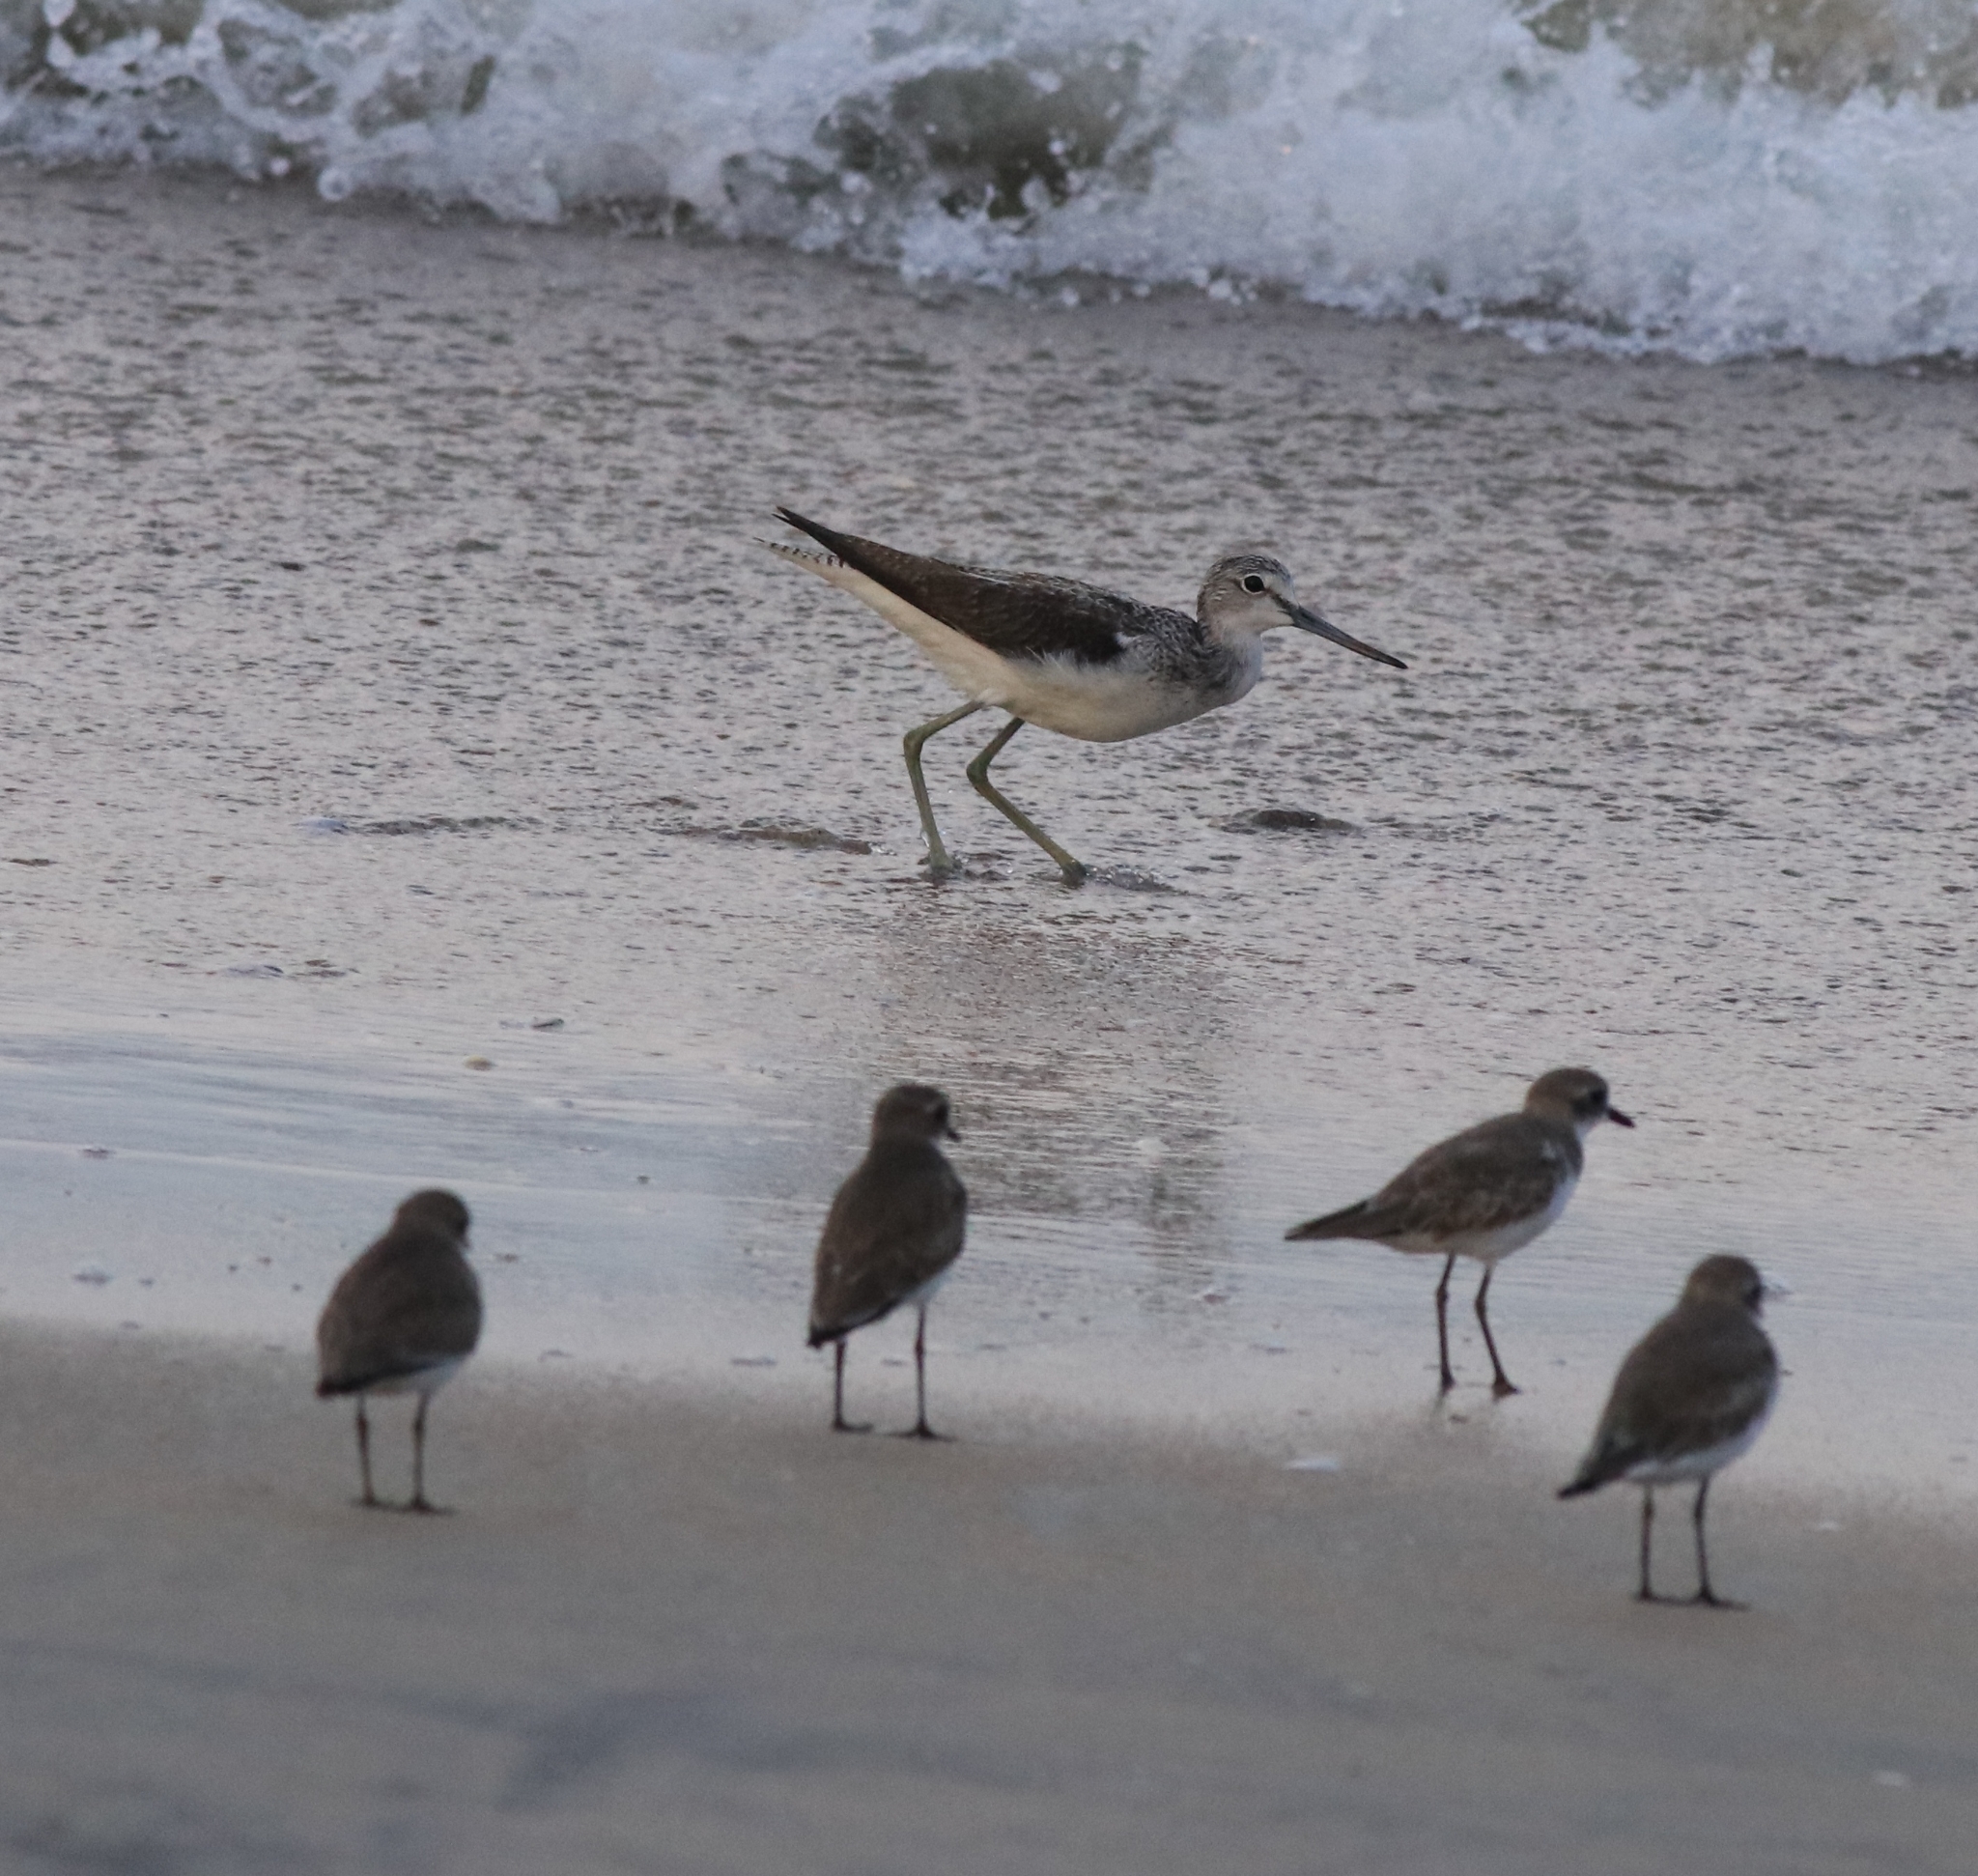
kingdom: Animalia
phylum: Chordata
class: Aves
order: Charadriiformes
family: Scolopacidae
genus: Tringa
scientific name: Tringa nebularia
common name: Common greenshank
